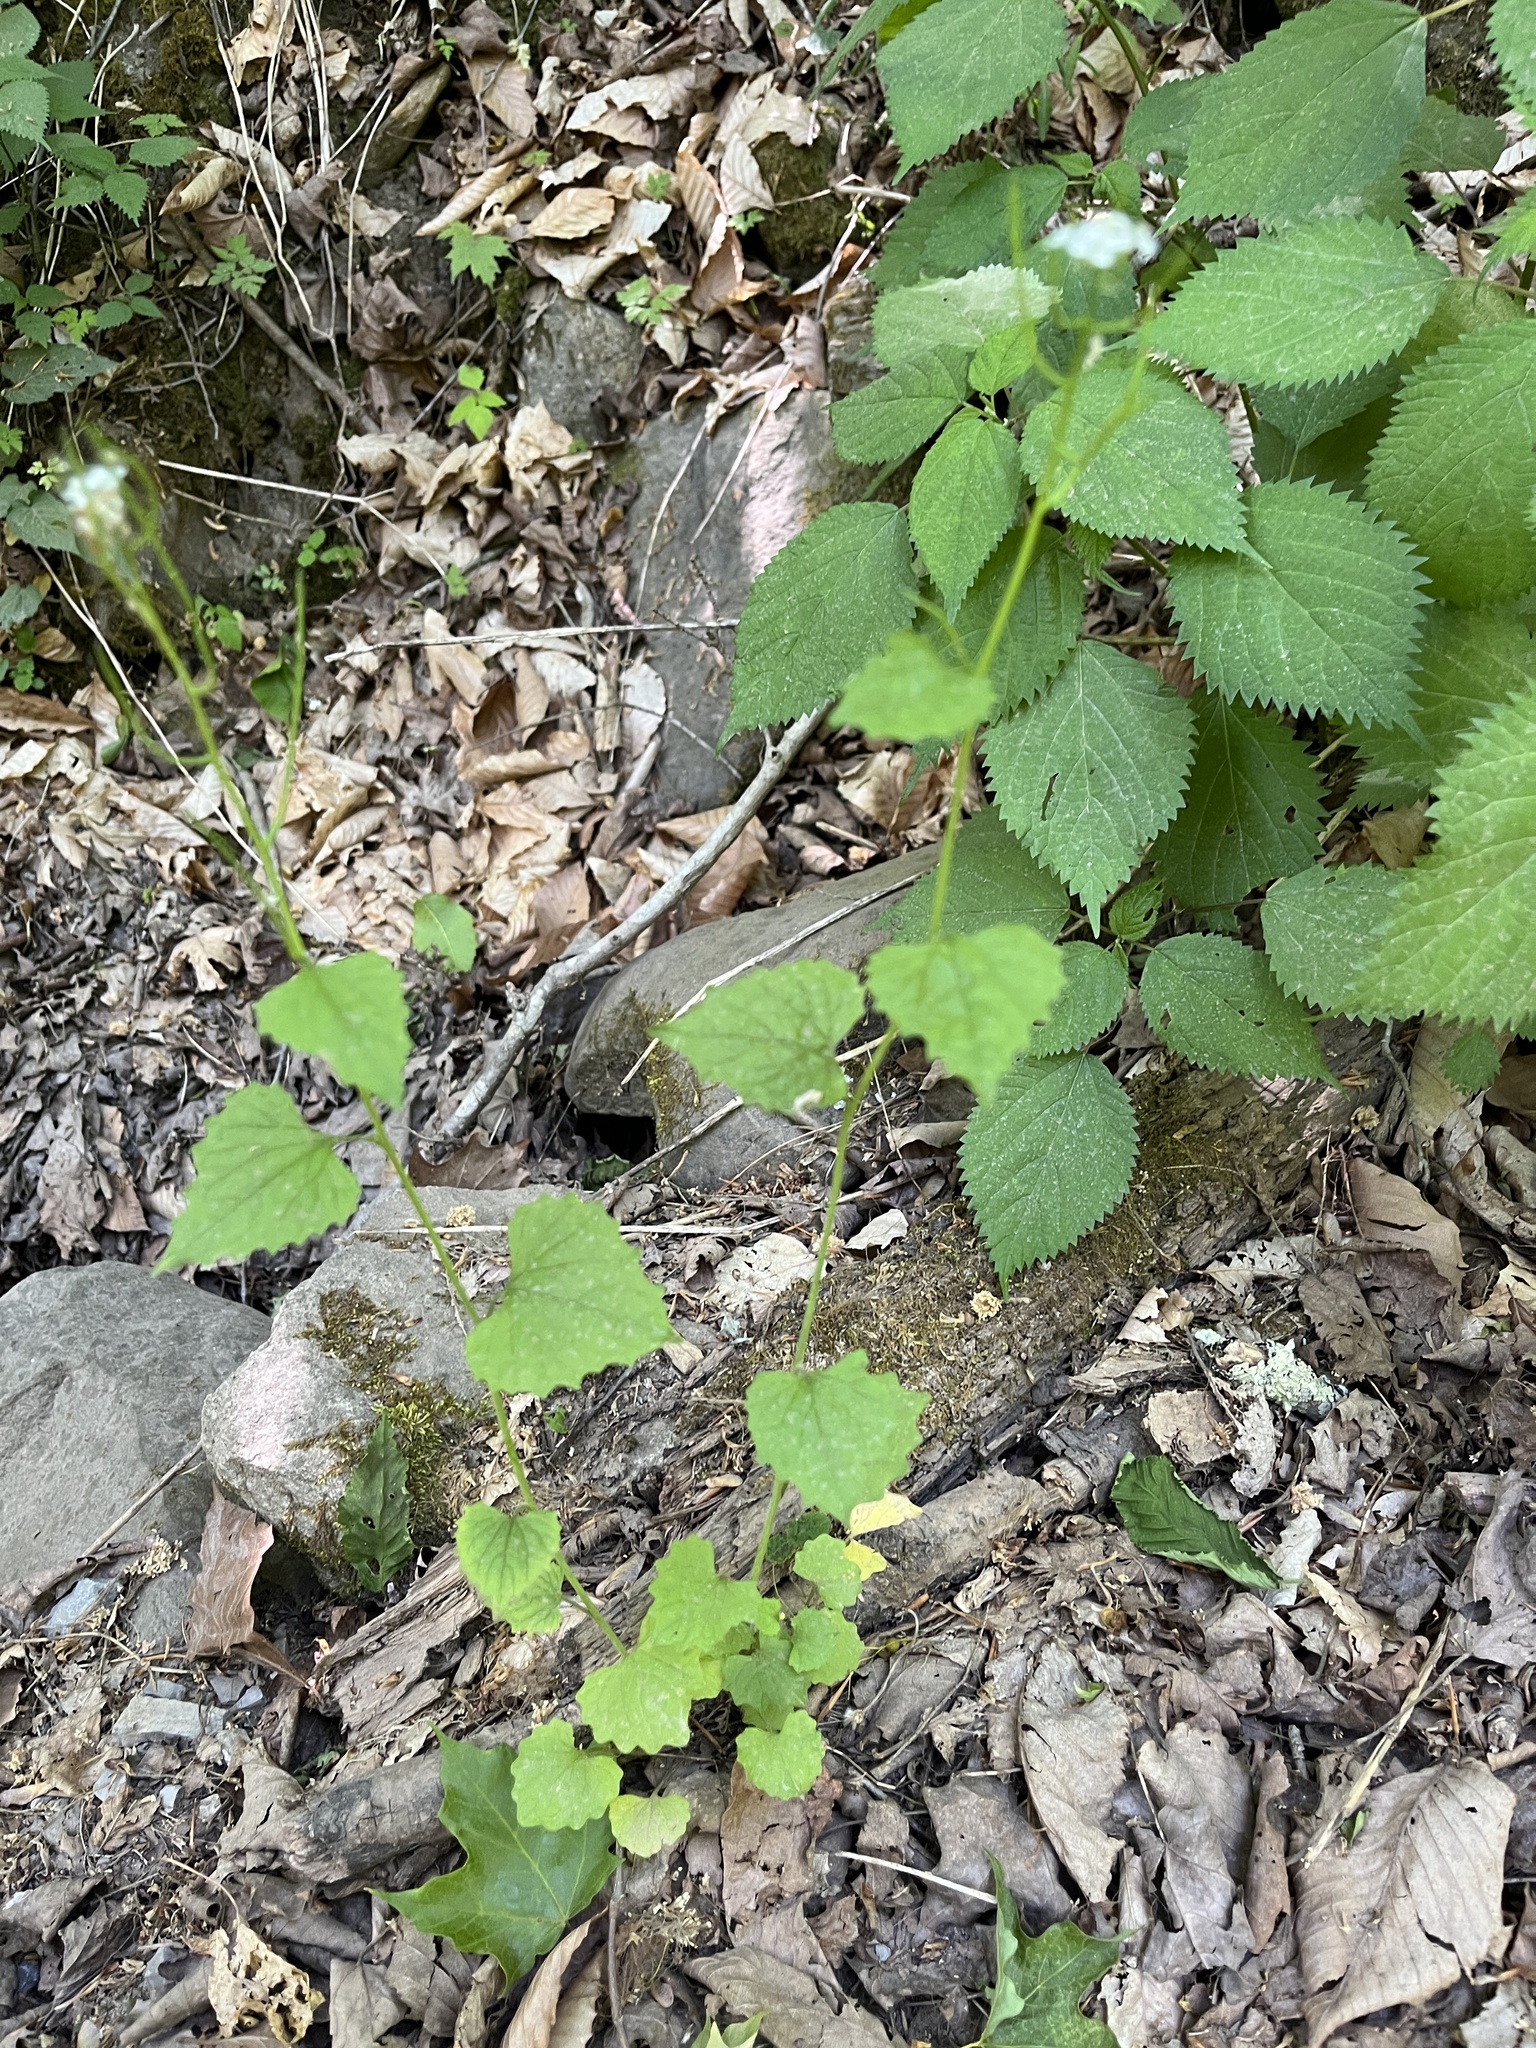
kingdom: Plantae
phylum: Tracheophyta
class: Magnoliopsida
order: Brassicales
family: Brassicaceae
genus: Alliaria
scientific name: Alliaria petiolata
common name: Garlic mustard
